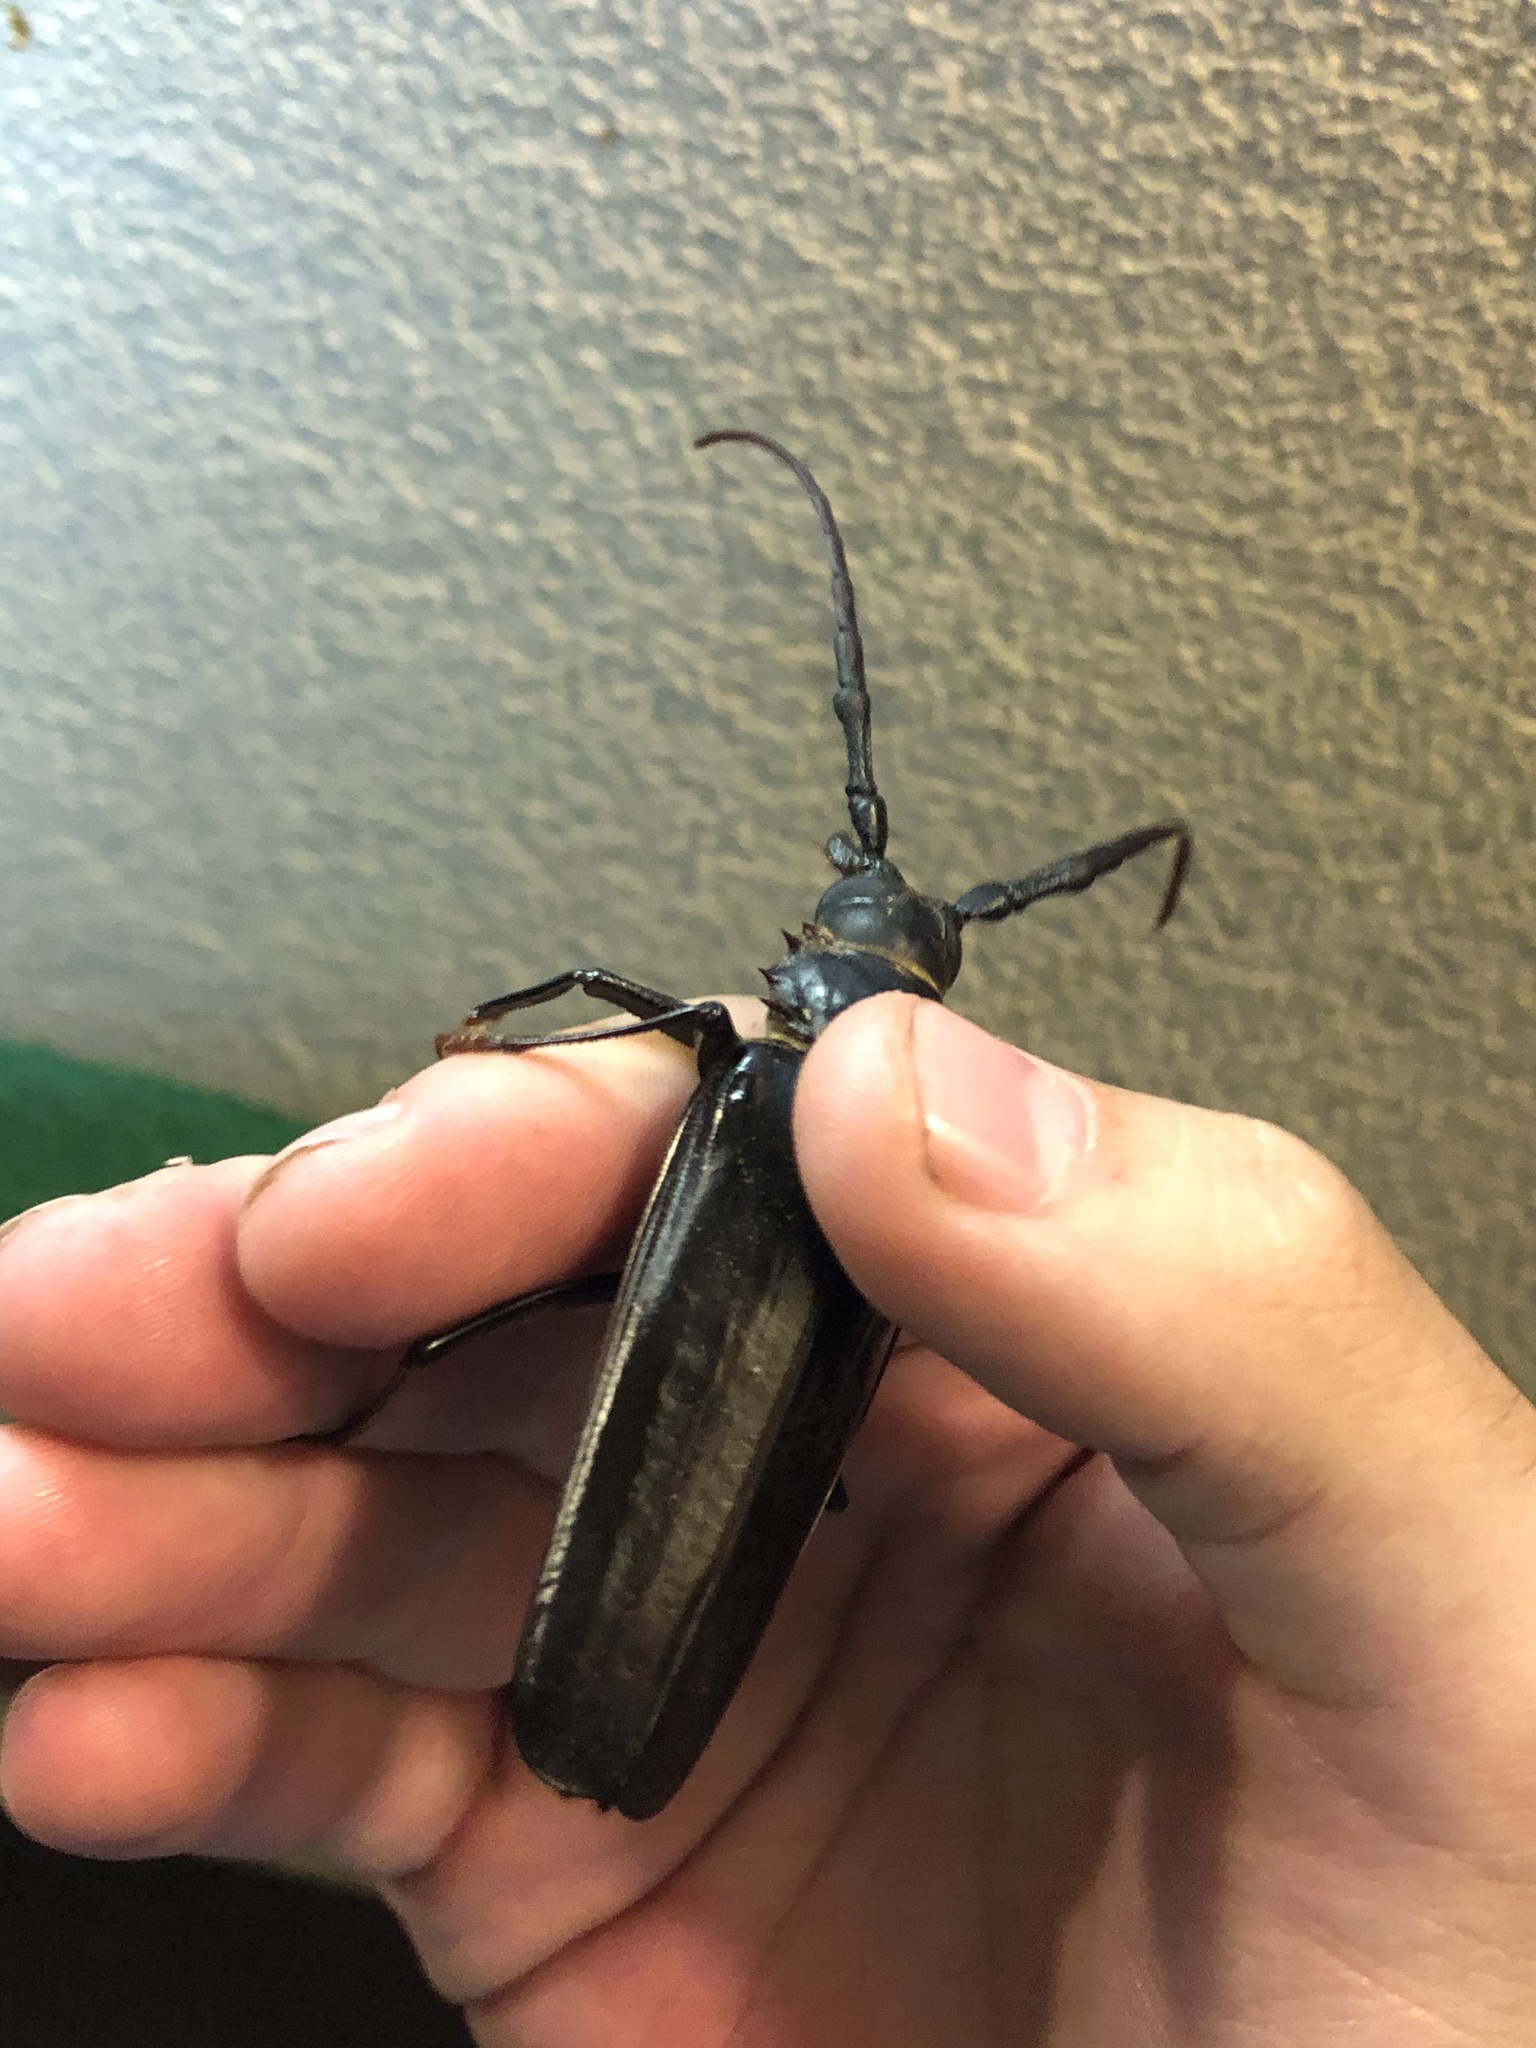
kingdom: Animalia
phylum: Arthropoda
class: Insecta
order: Coleoptera
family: Cerambycidae
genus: Derobrachus
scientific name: Derobrachus hovorei
